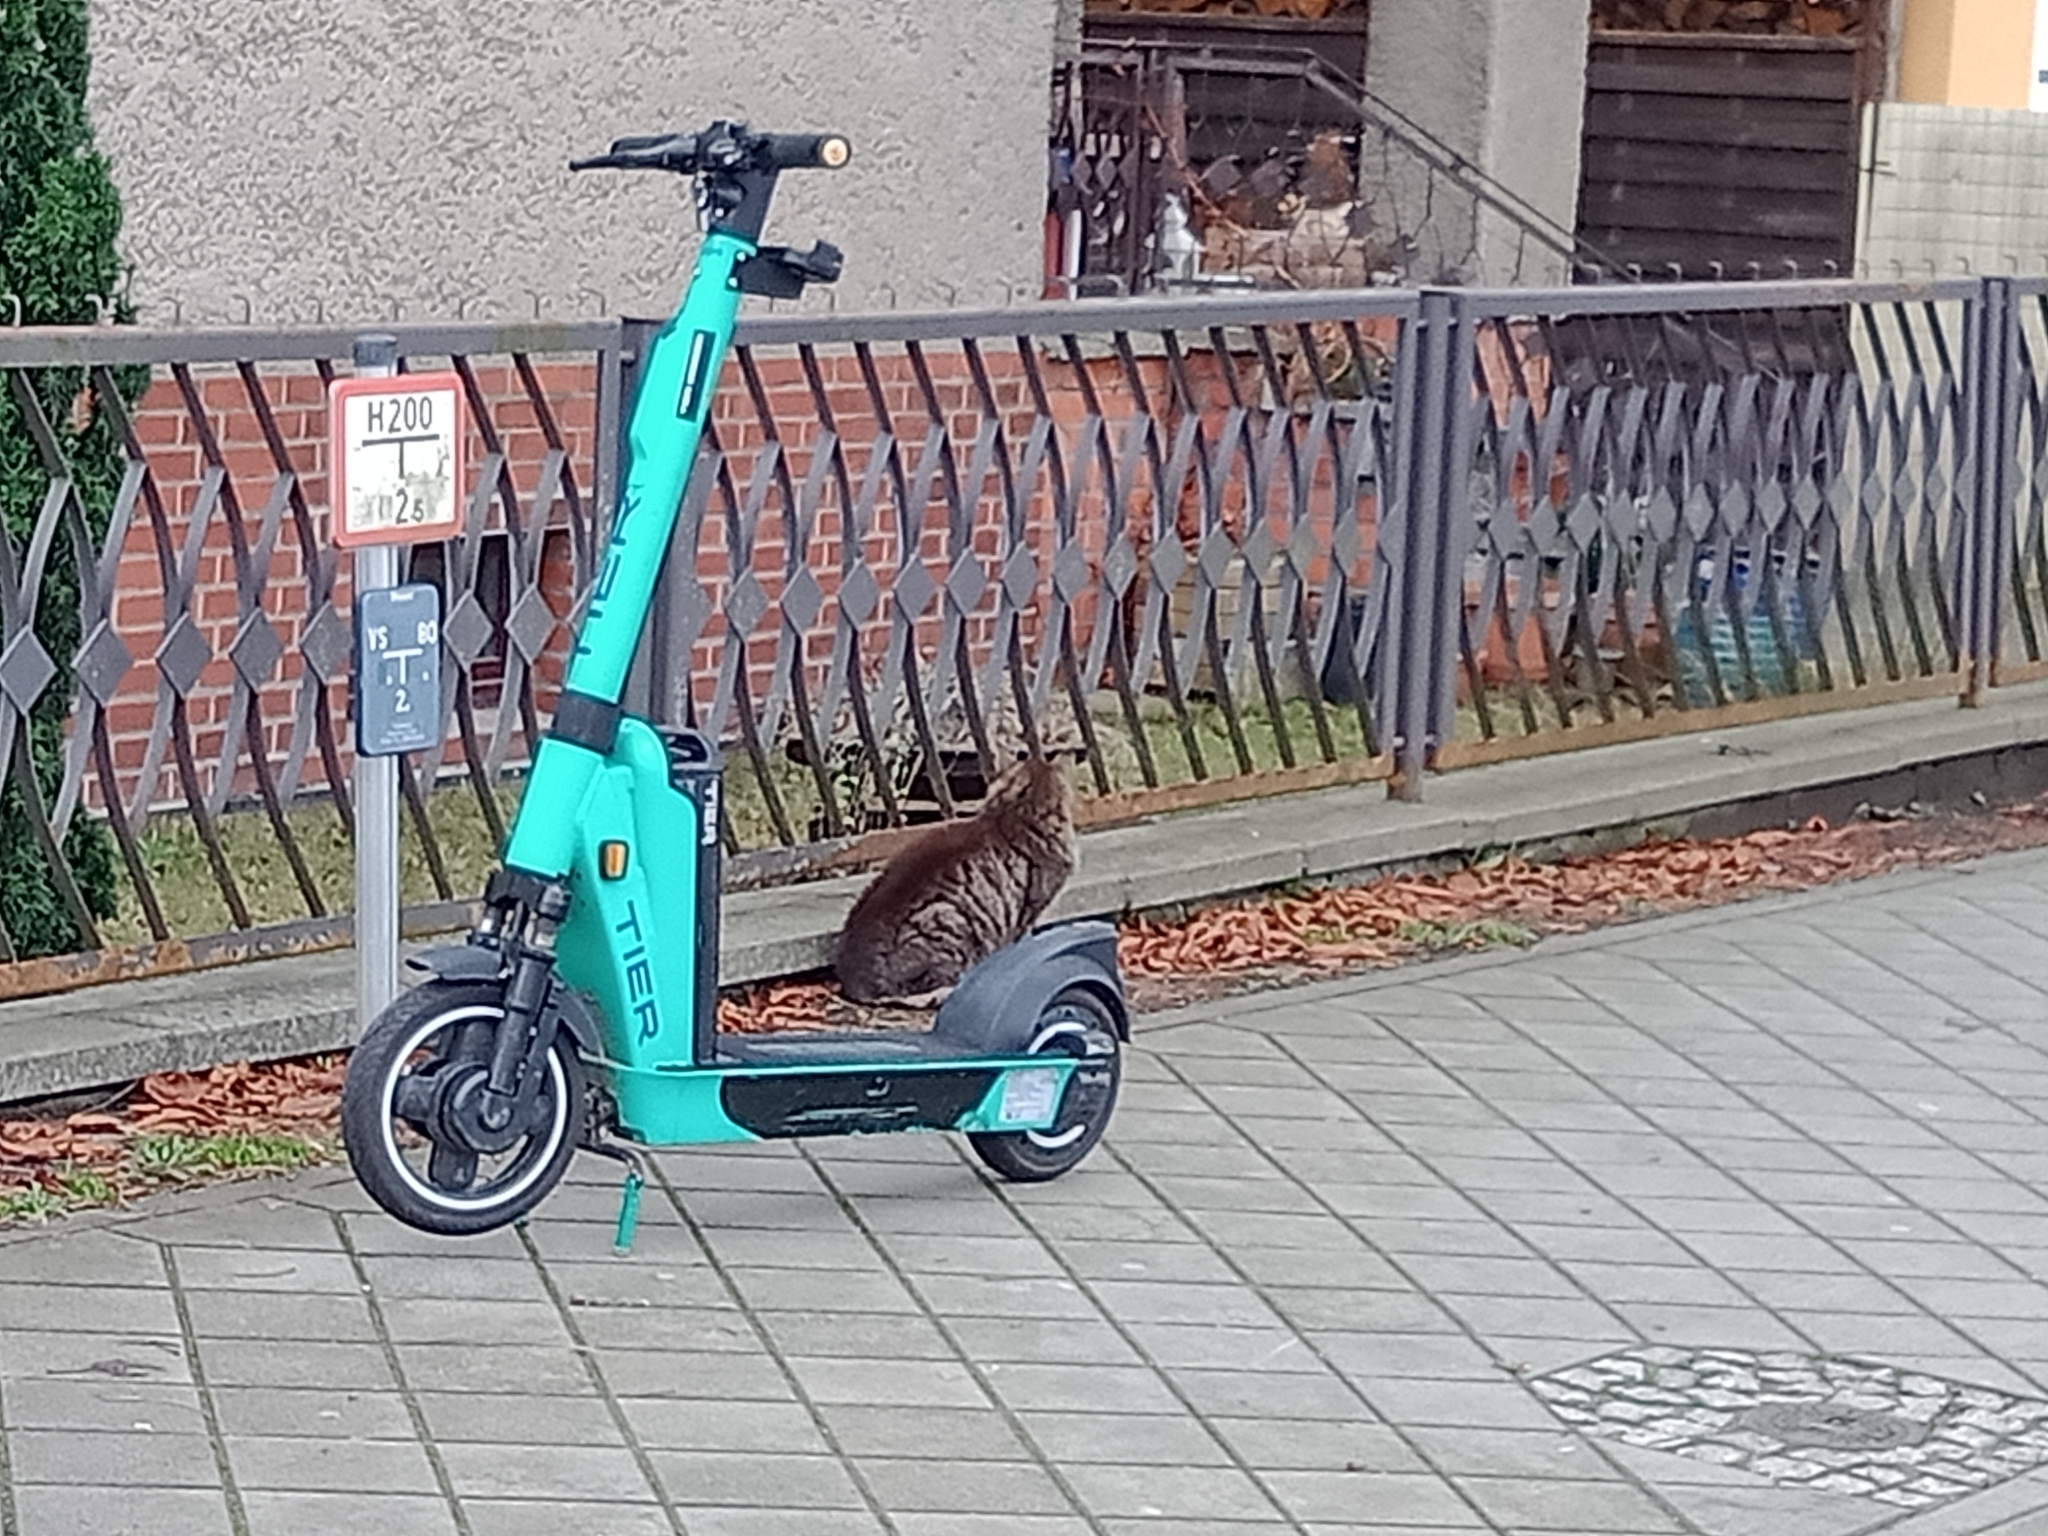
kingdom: Animalia
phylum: Chordata
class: Mammalia
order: Carnivora
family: Felidae
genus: Felis
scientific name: Felis catus
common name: Domestic cat
